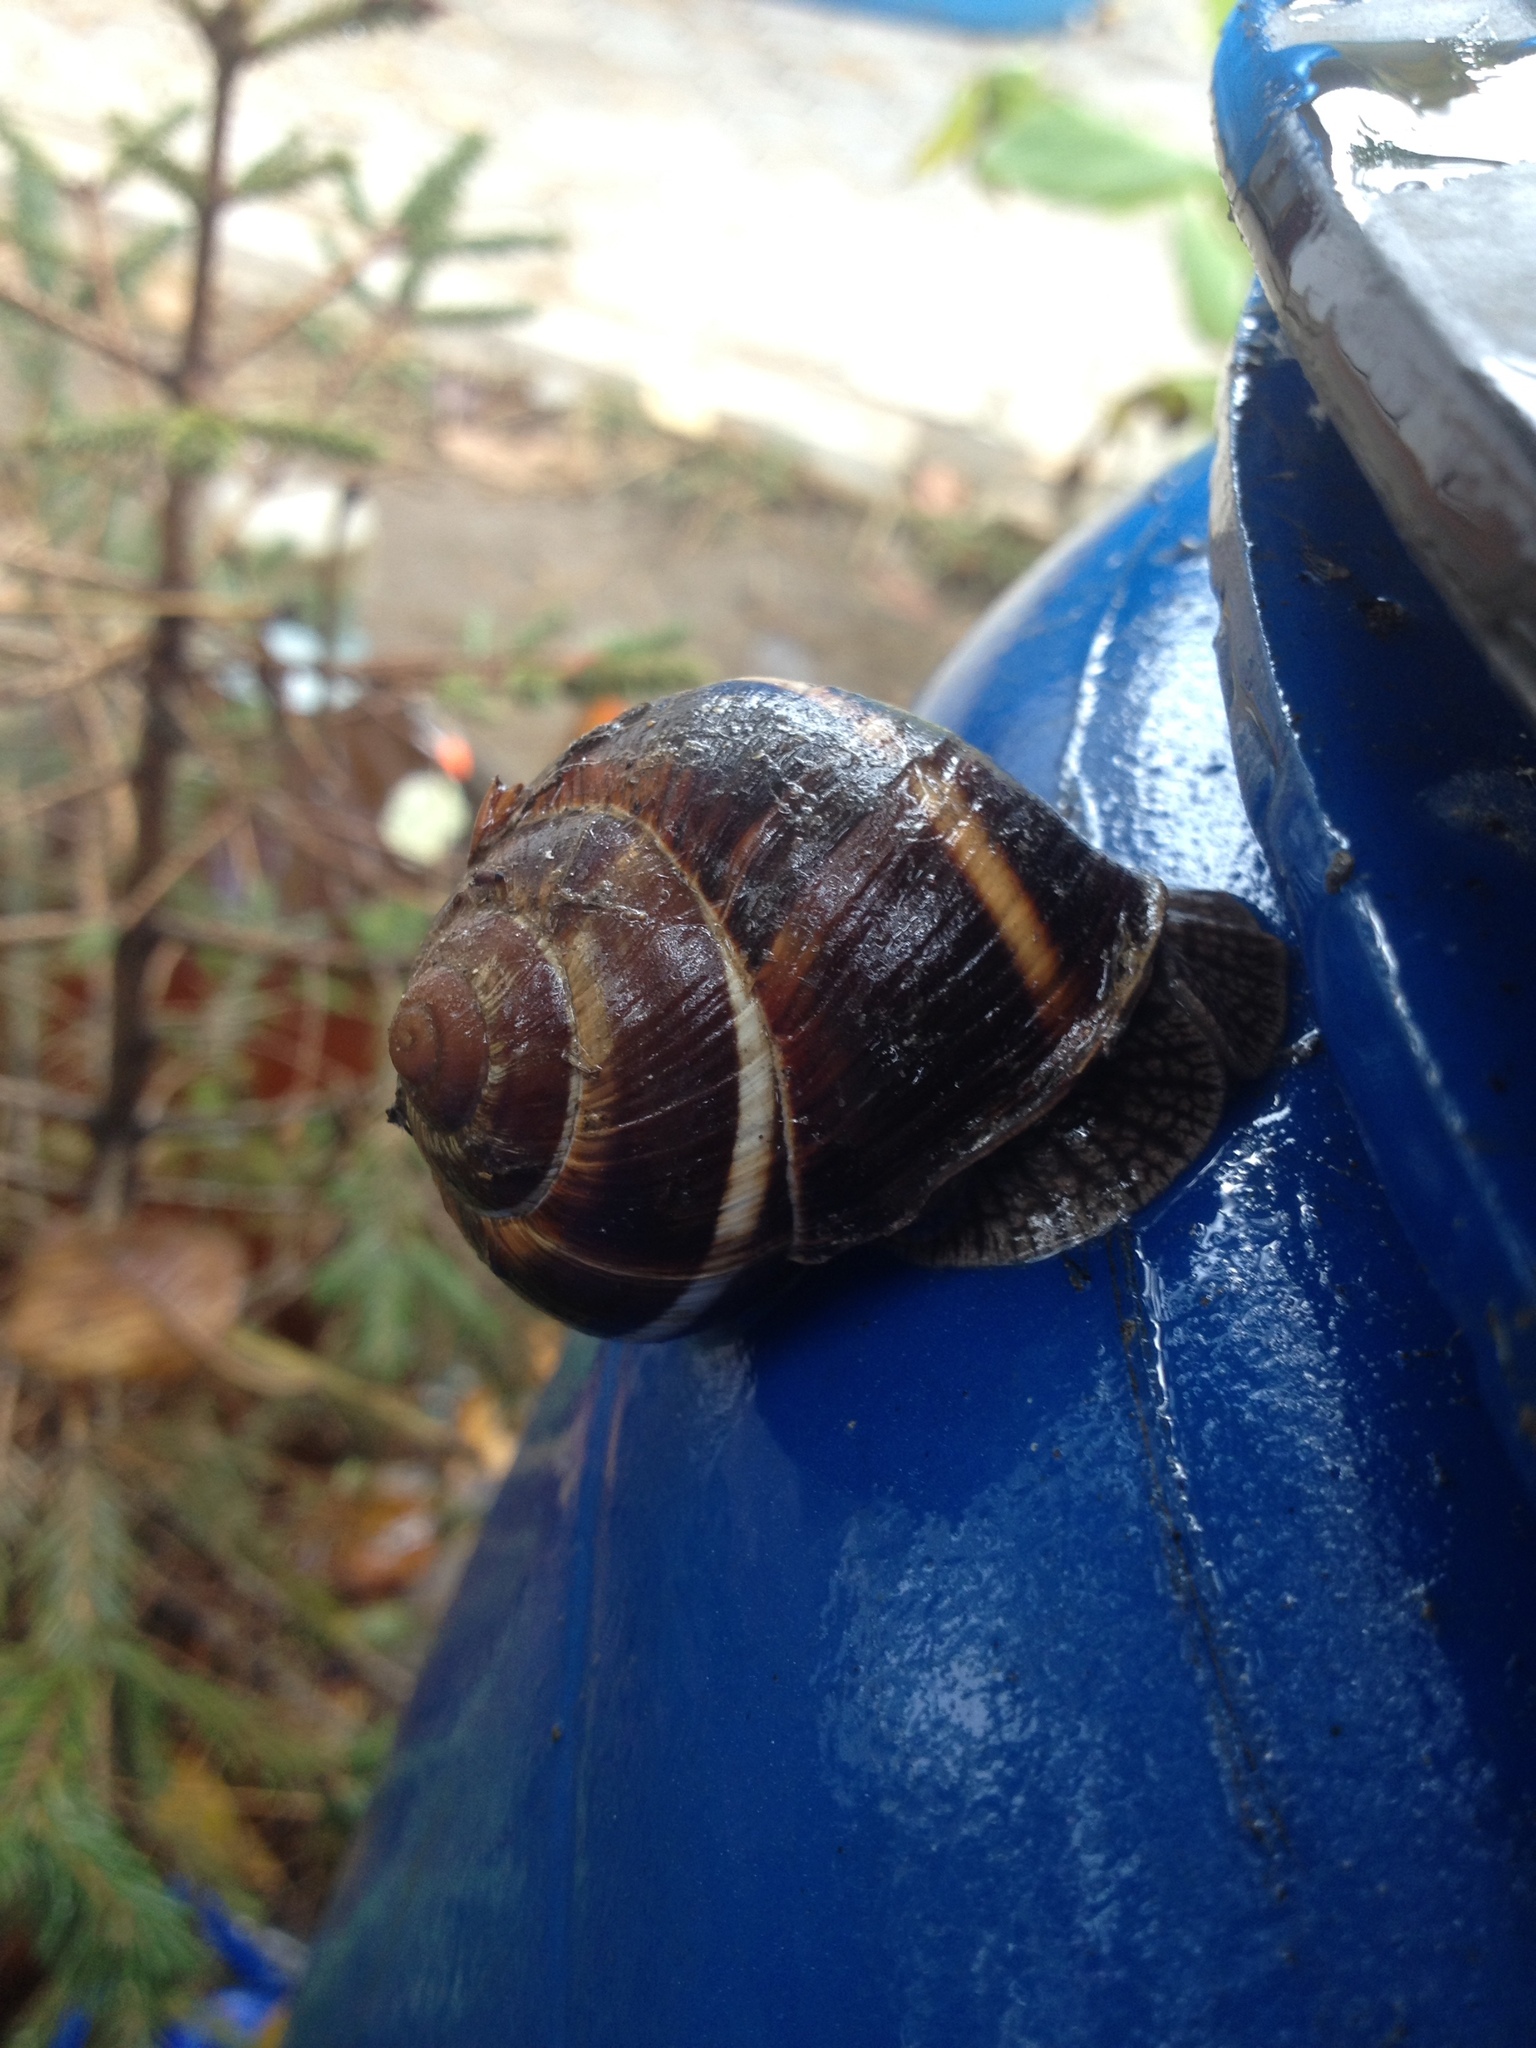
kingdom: Animalia
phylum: Mollusca
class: Gastropoda
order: Stylommatophora
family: Helicidae
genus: Helix
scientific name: Helix lucorum
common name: Turkish snail
